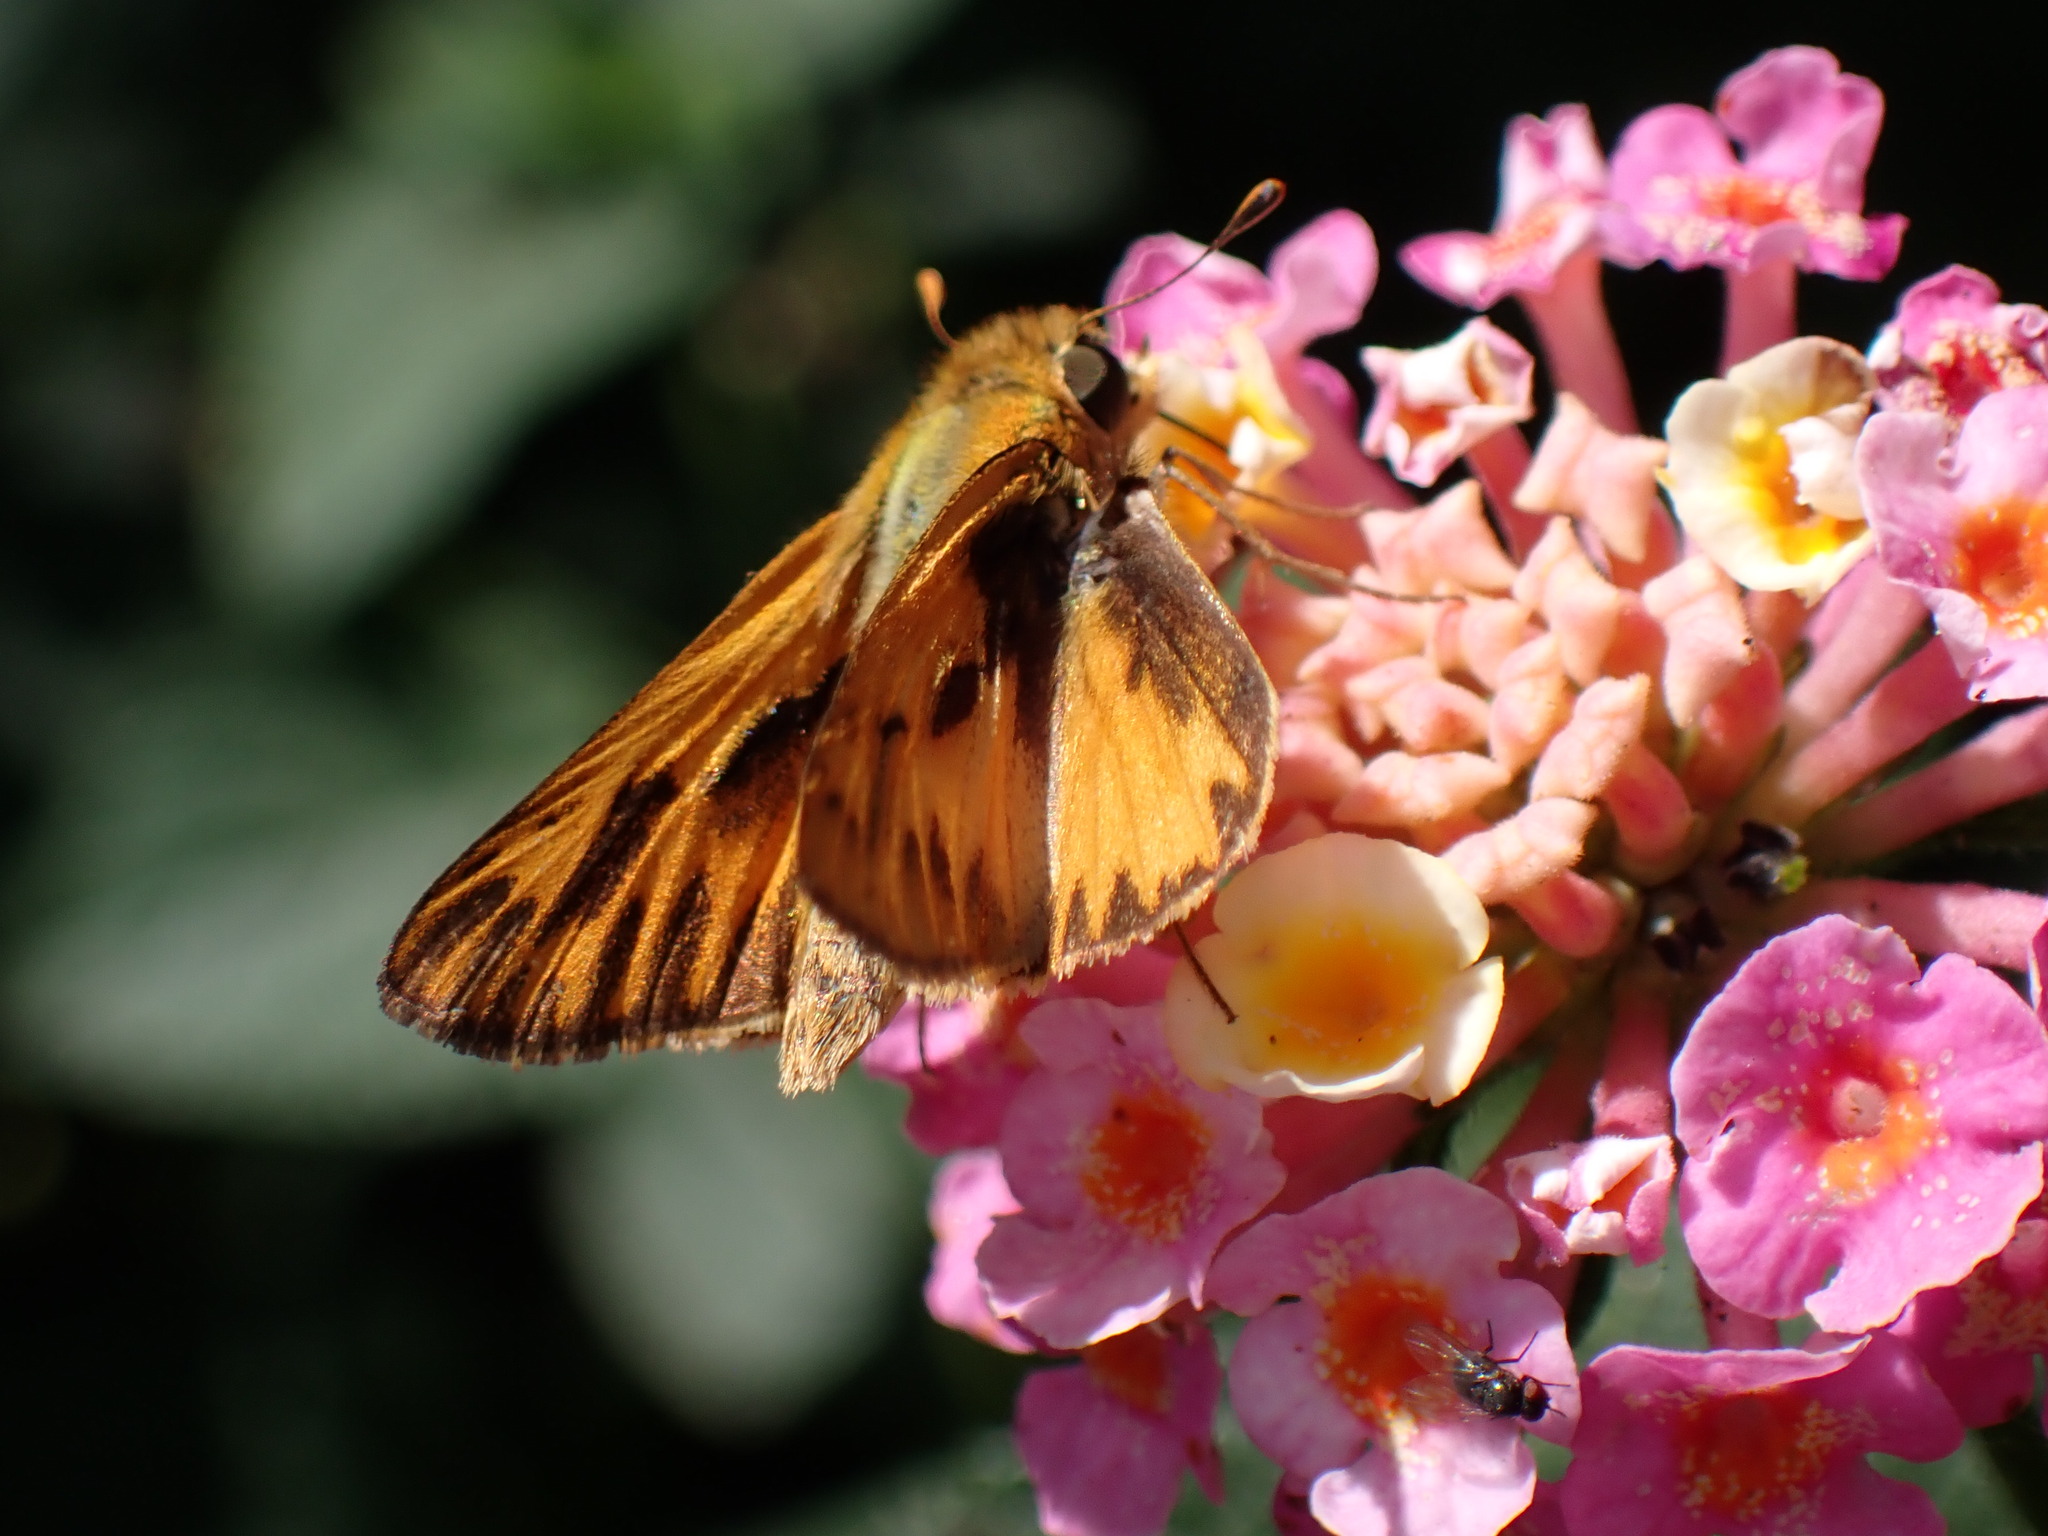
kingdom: Animalia
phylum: Arthropoda
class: Insecta
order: Lepidoptera
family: Hesperiidae
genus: Hylephila
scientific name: Hylephila phyleus
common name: Fiery skipper
